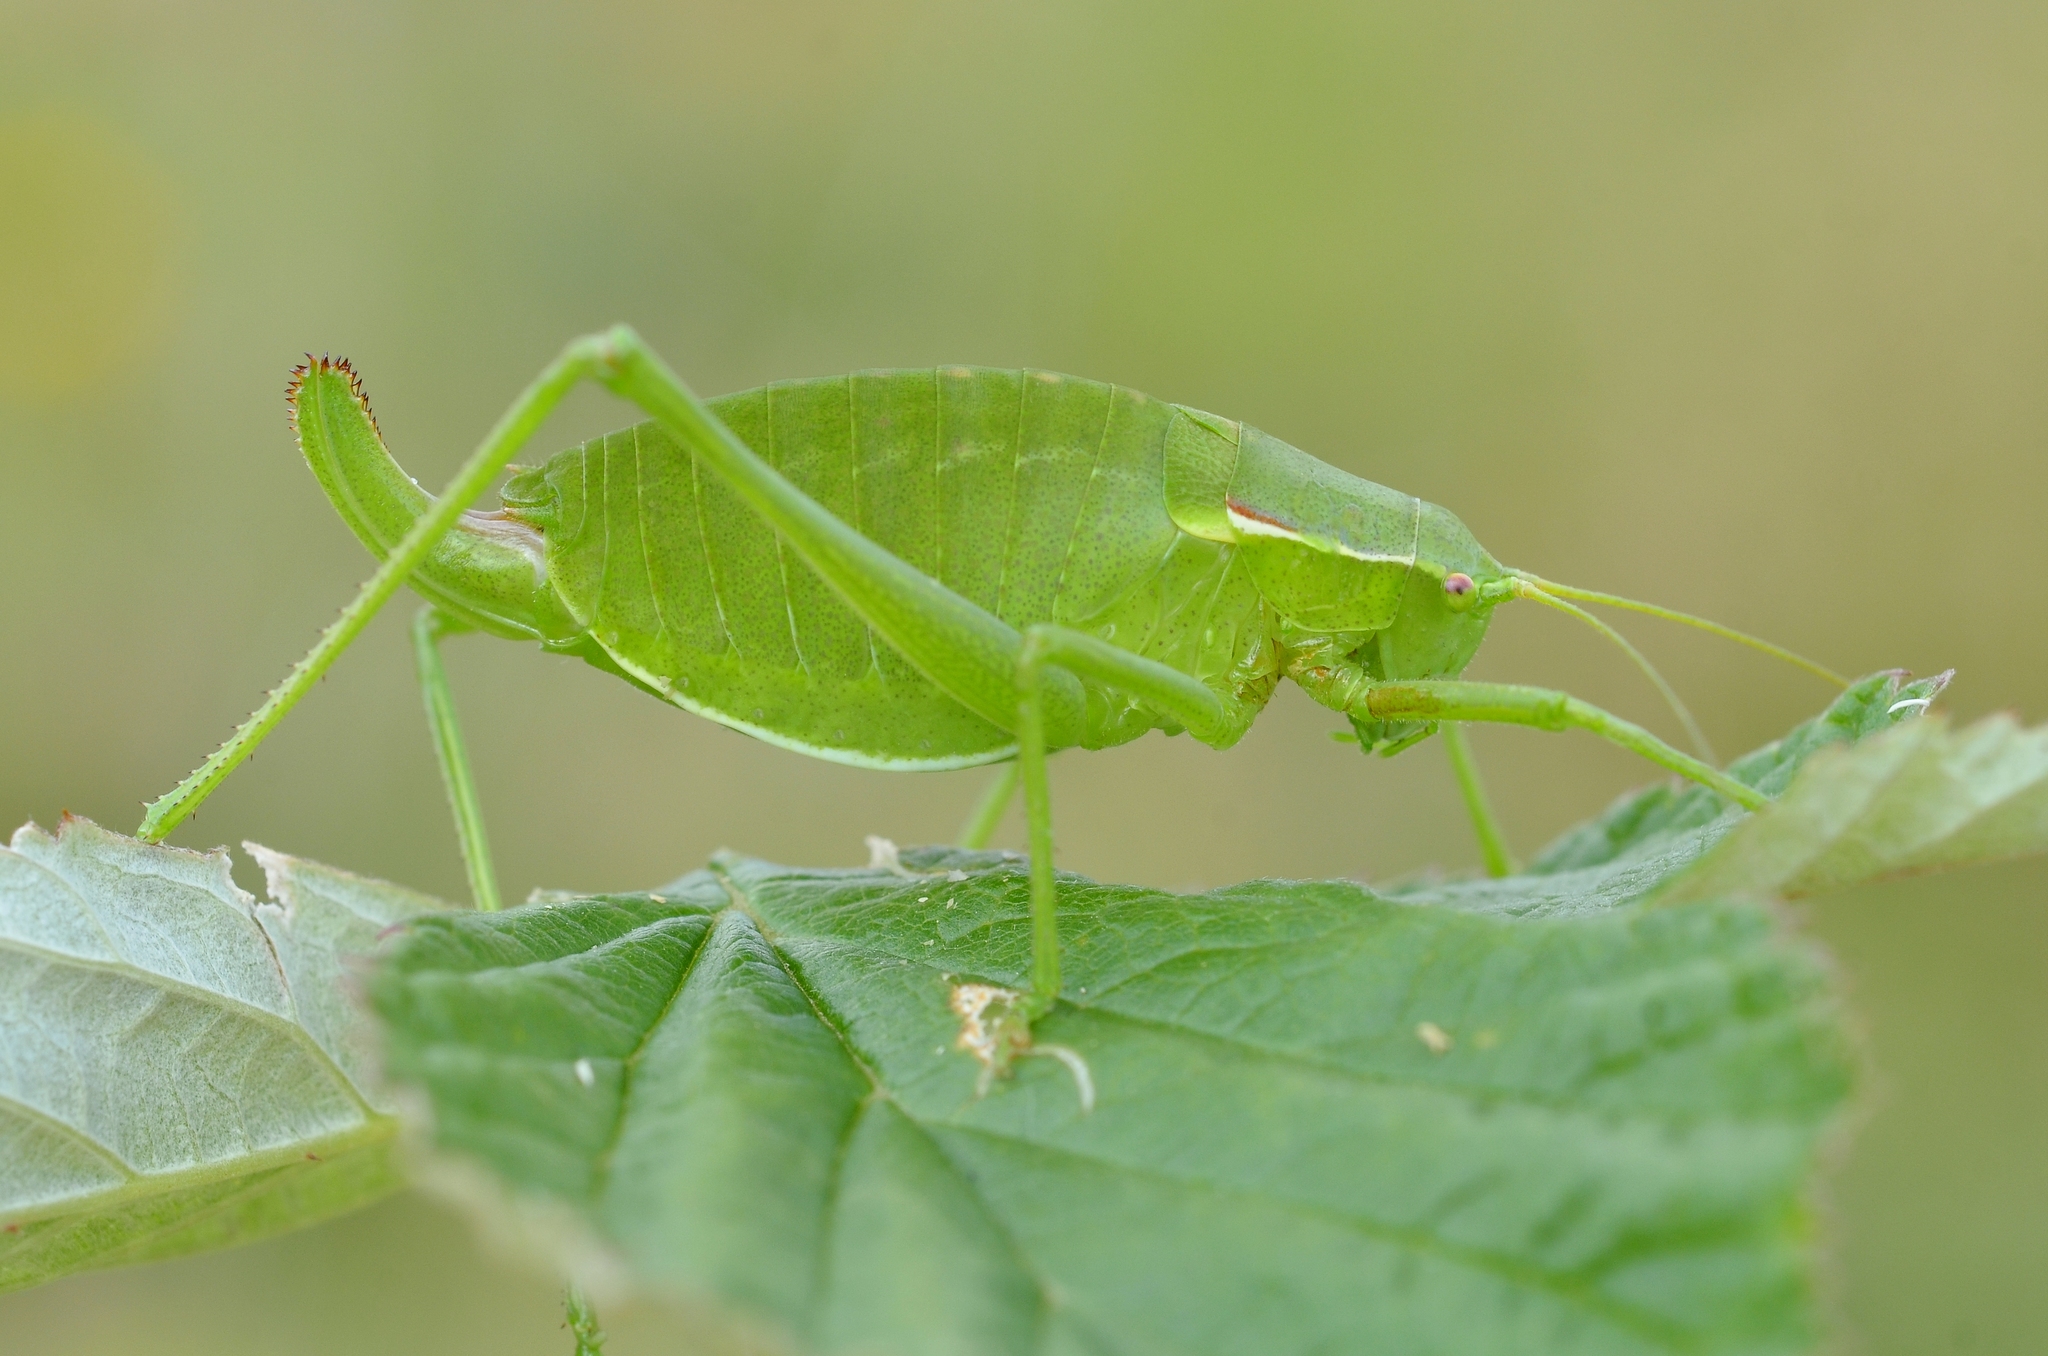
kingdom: Animalia
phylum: Arthropoda
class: Insecta
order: Orthoptera
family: Tettigoniidae
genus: Isophya
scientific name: Isophya pyrenaea
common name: Pyrenean plump bush-cricket
